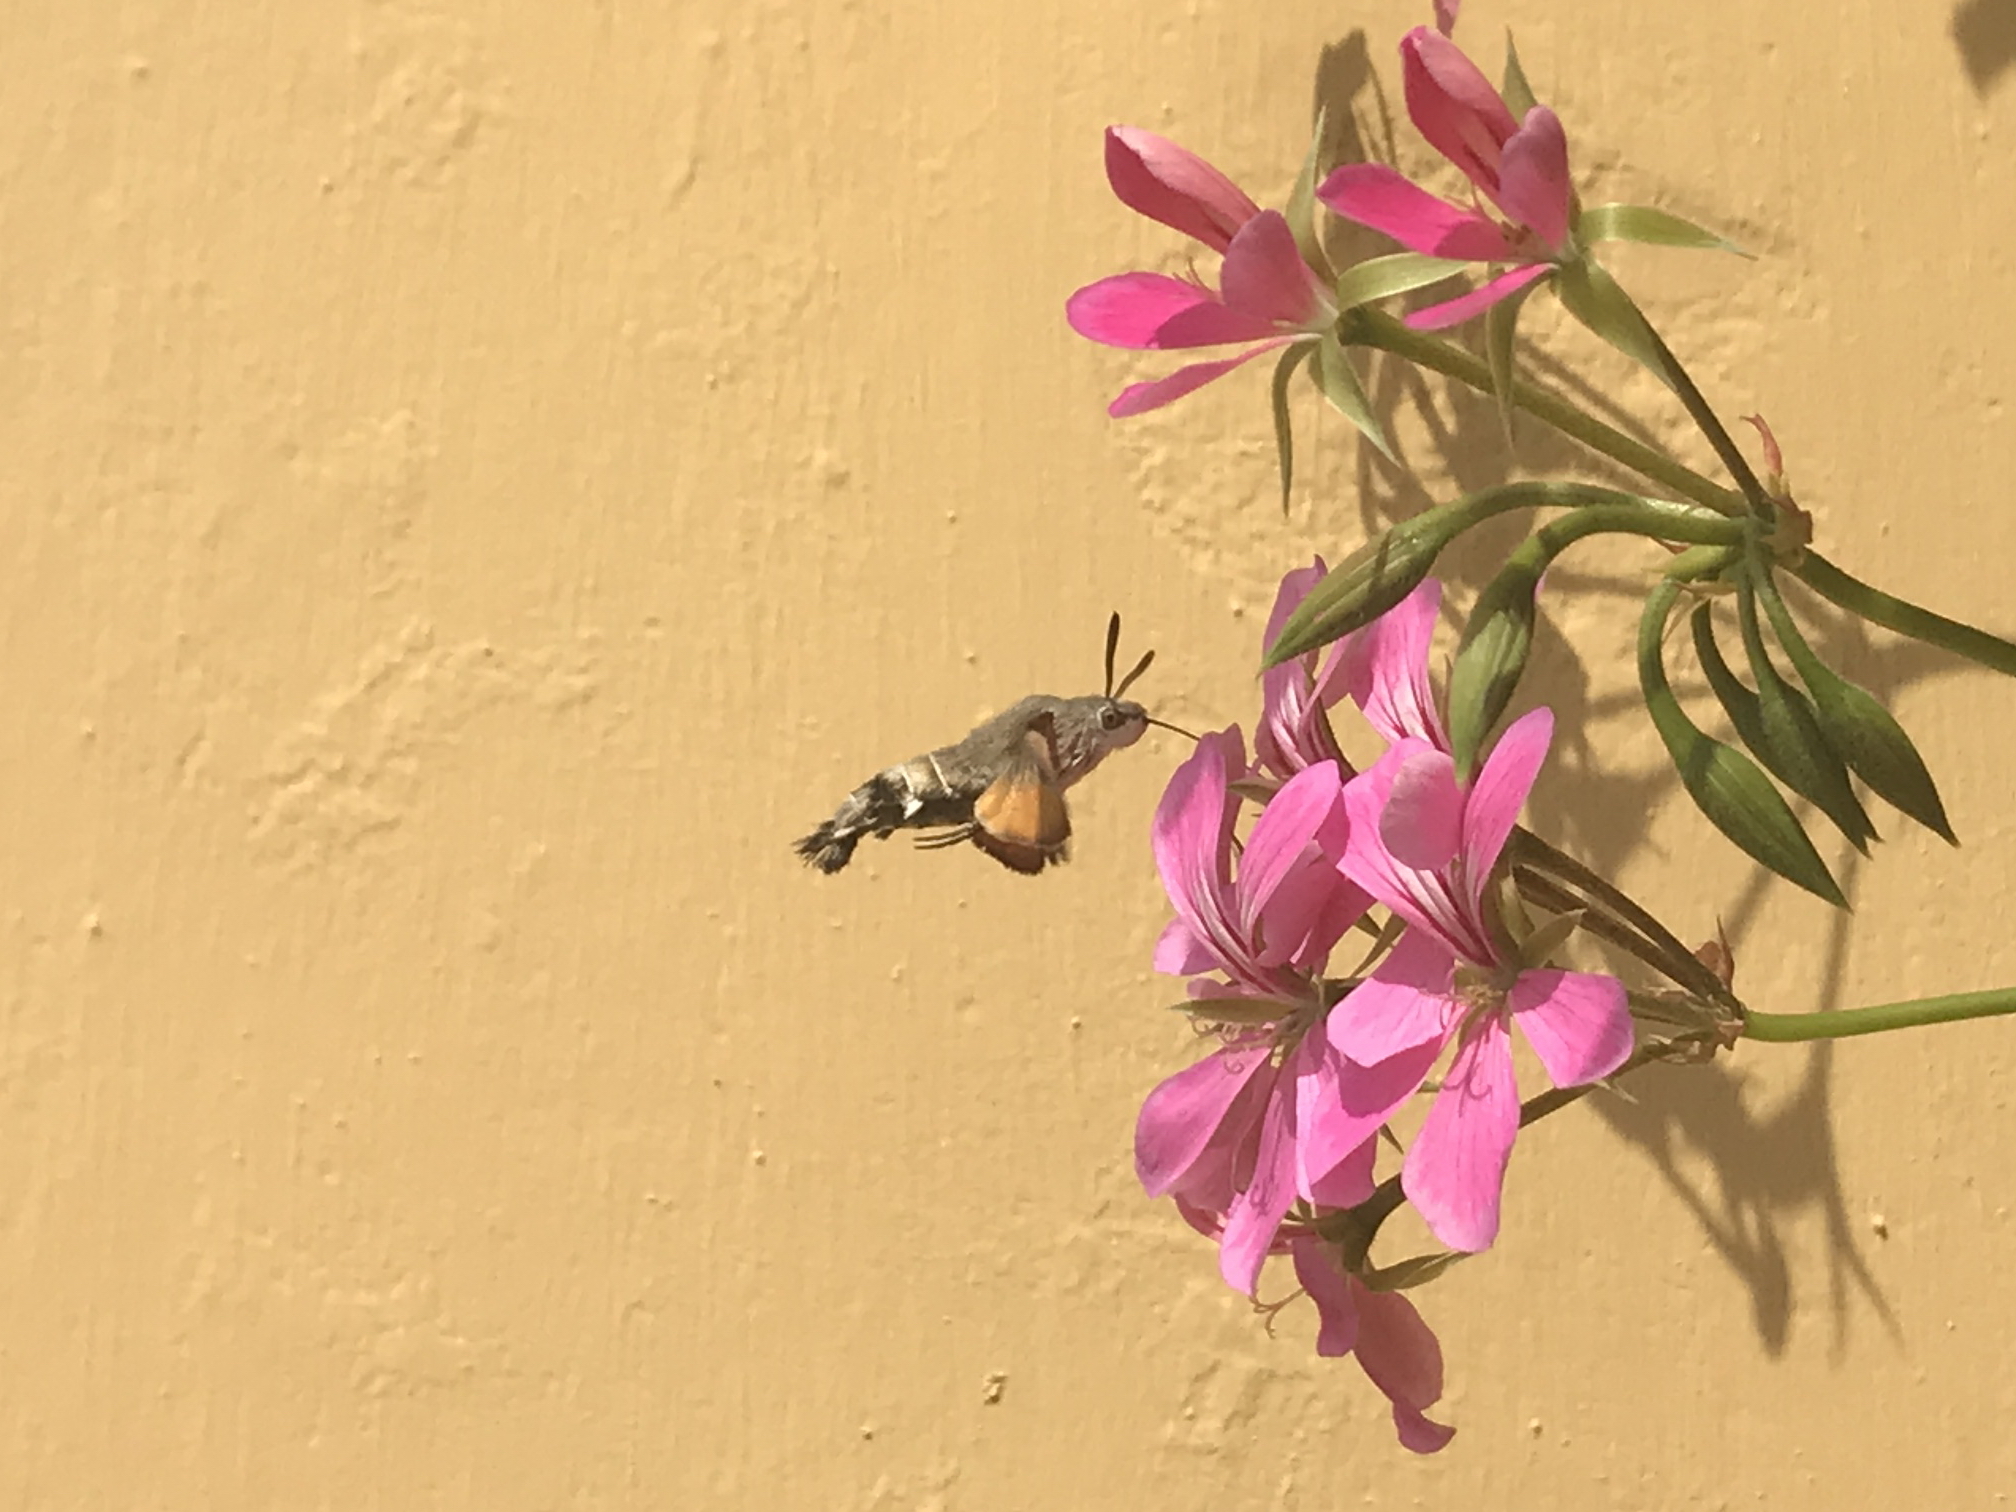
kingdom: Animalia
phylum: Arthropoda
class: Insecta
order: Lepidoptera
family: Sphingidae
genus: Macroglossum
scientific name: Macroglossum stellatarum
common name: Humming-bird hawk-moth
